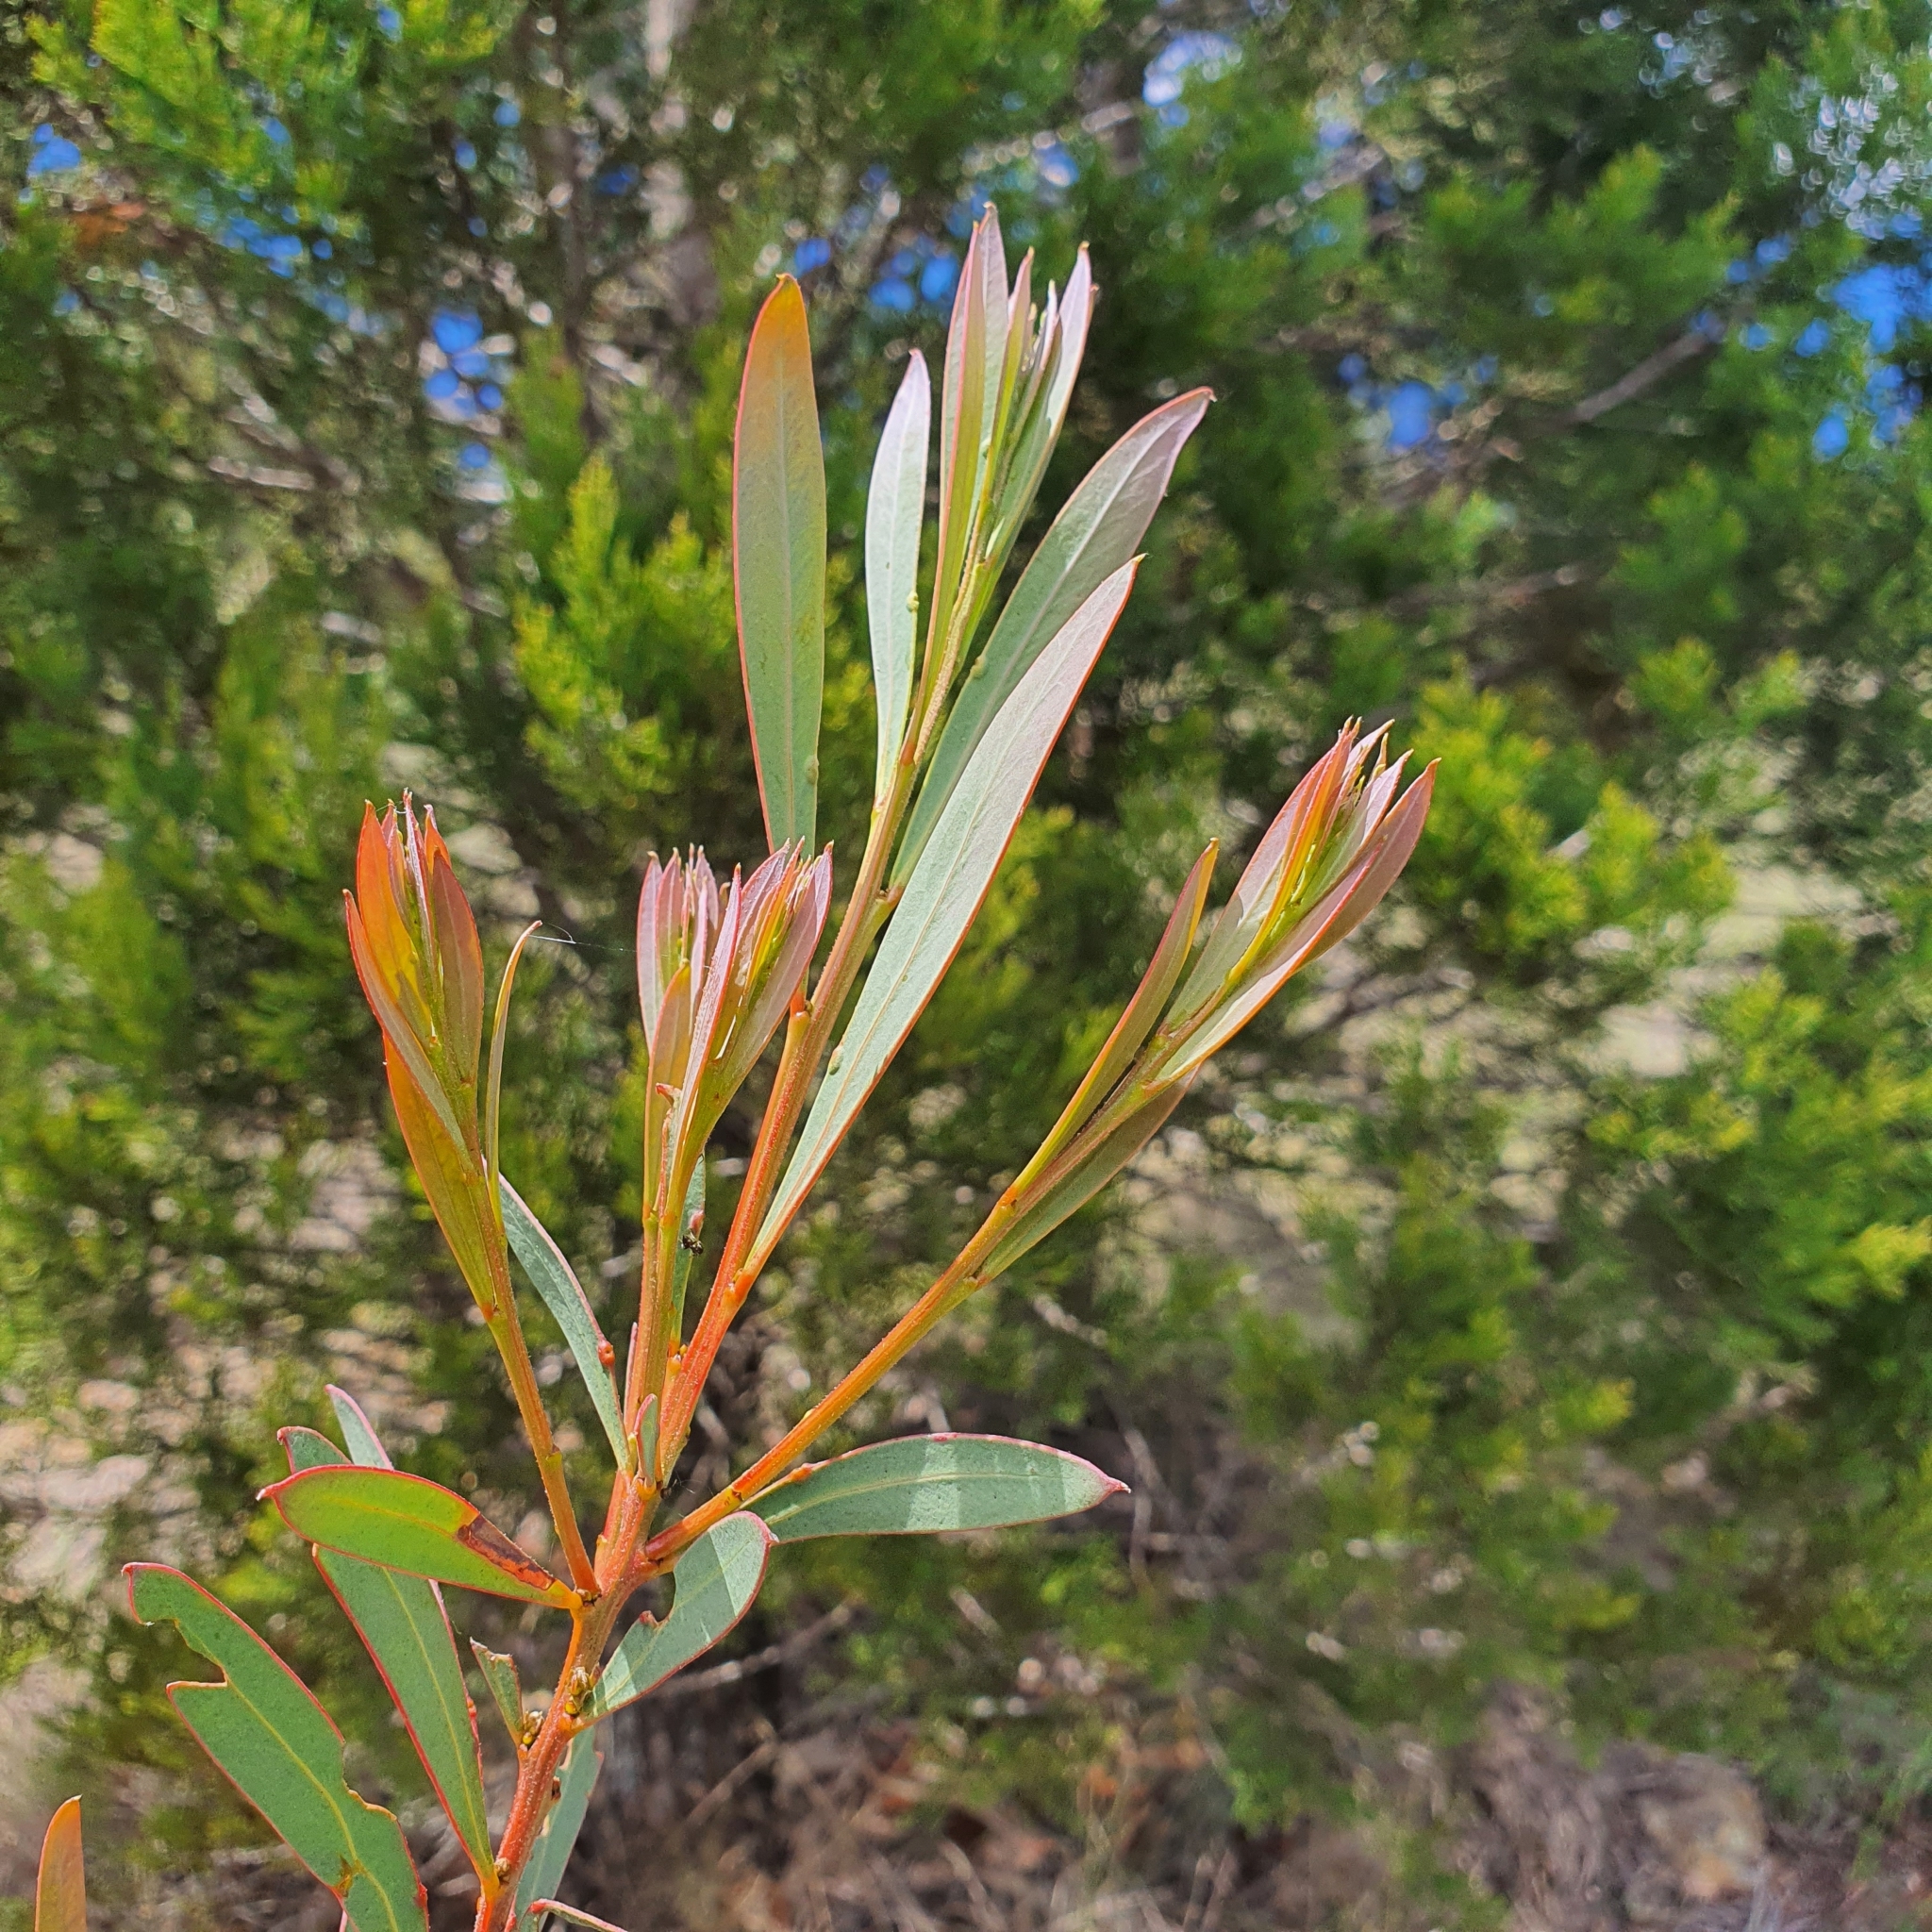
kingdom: Plantae
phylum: Tracheophyta
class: Magnoliopsida
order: Fabales
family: Fabaceae
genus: Acacia
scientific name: Acacia rubida
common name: Red leaf wattle
